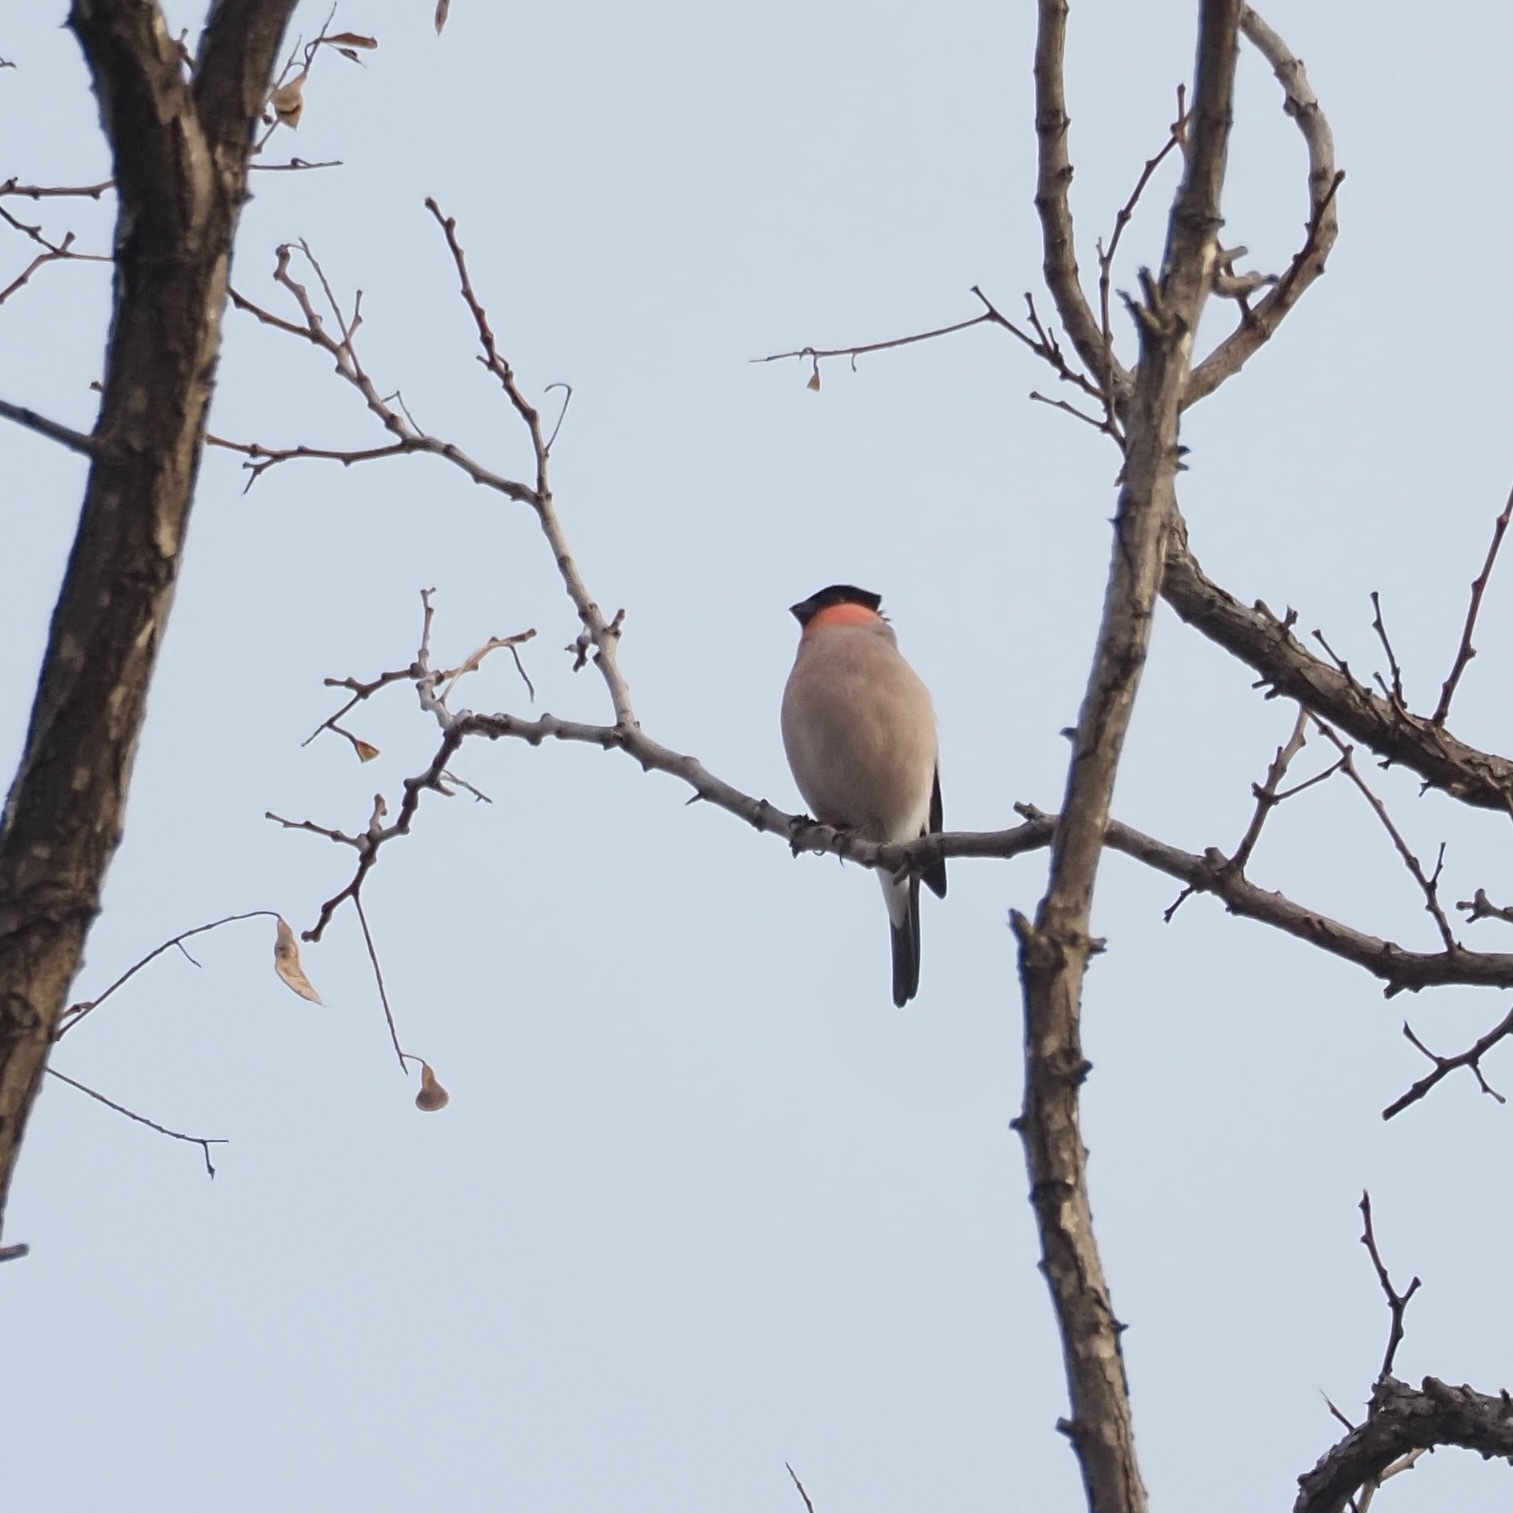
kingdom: Animalia
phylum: Chordata
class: Aves
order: Passeriformes
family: Fringillidae
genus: Pyrrhula
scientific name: Pyrrhula pyrrhula
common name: Eurasian bullfinch
